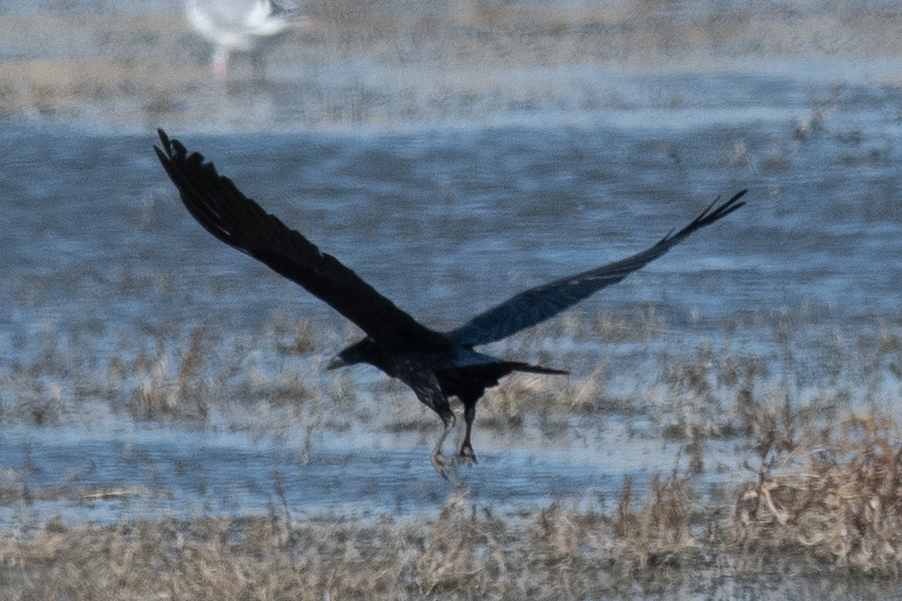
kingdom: Animalia
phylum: Chordata
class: Aves
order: Passeriformes
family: Corvidae
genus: Corvus
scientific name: Corvus corax
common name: Common raven
